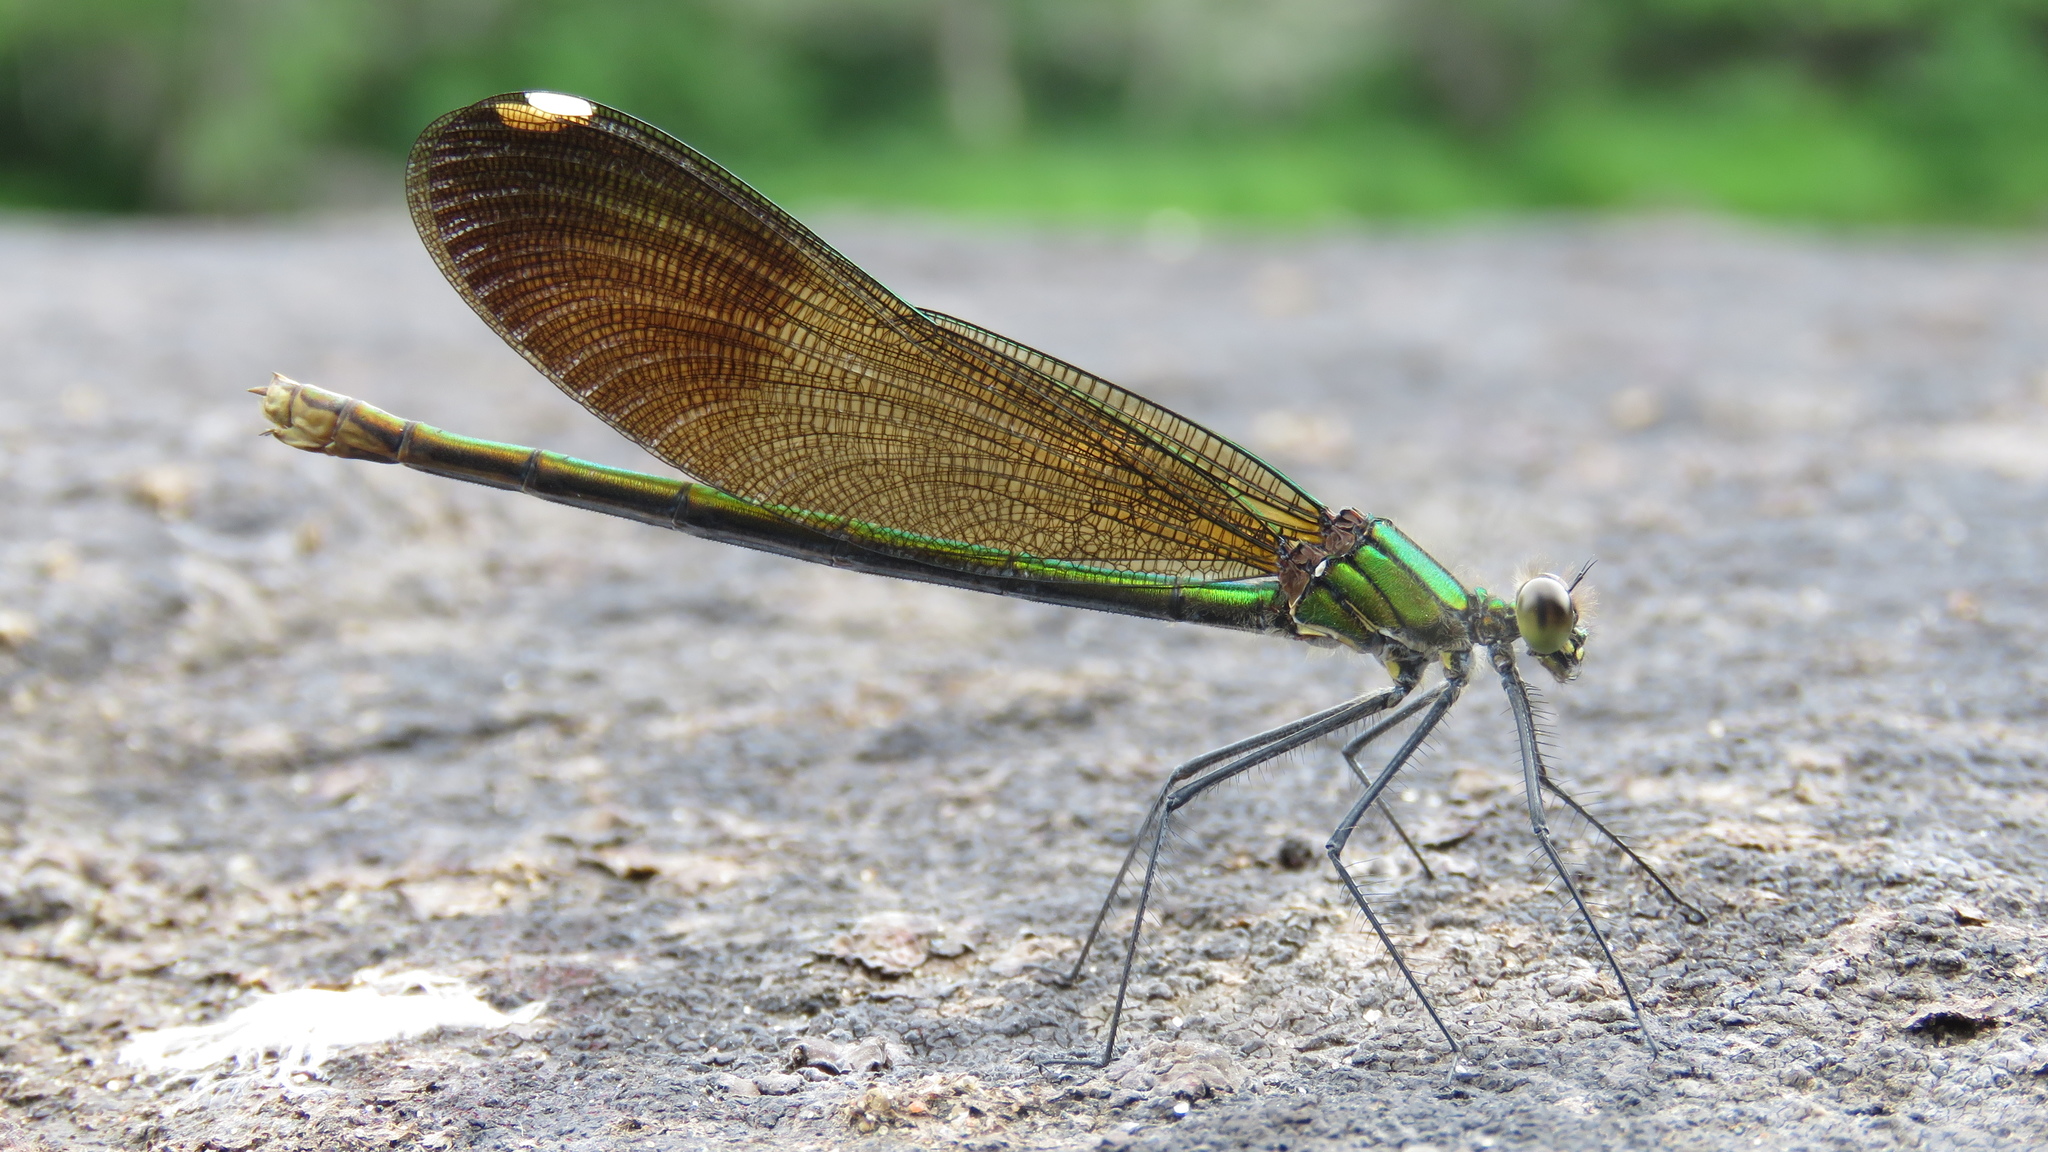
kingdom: Animalia
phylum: Arthropoda
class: Insecta
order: Odonata
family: Calopterygidae
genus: Calopteryx
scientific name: Calopteryx aequabilis
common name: River jewelwing
